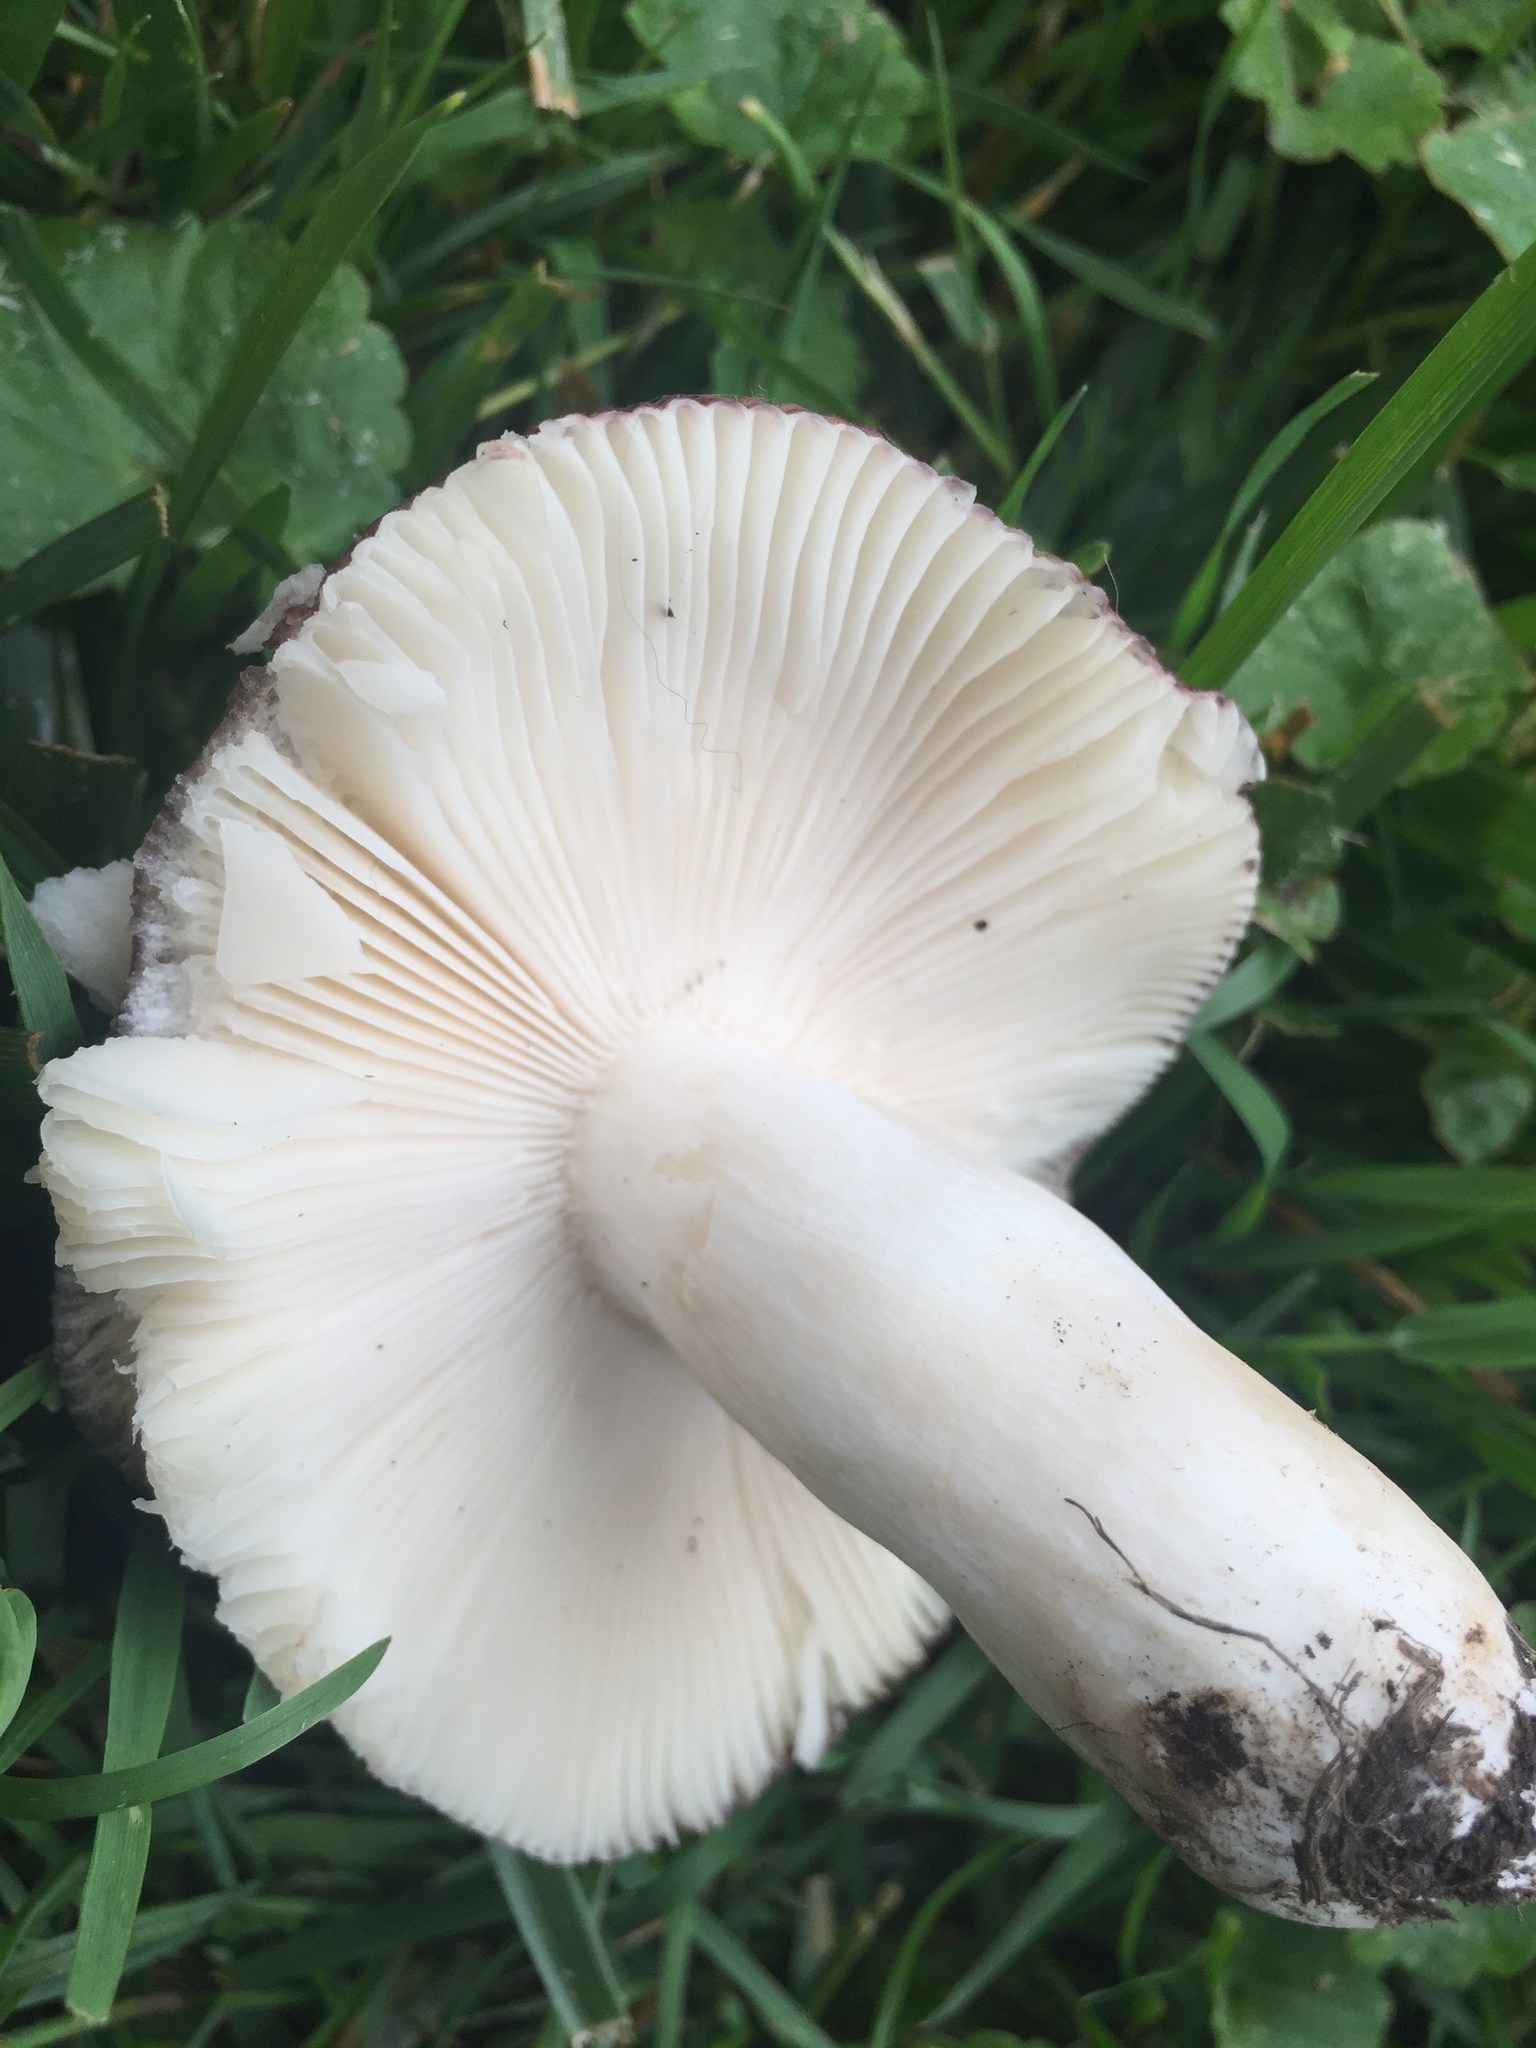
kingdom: Fungi
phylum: Basidiomycota
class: Agaricomycetes
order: Russulales
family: Russulaceae
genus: Russula
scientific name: Russula vinacea
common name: Blackish-red russula
